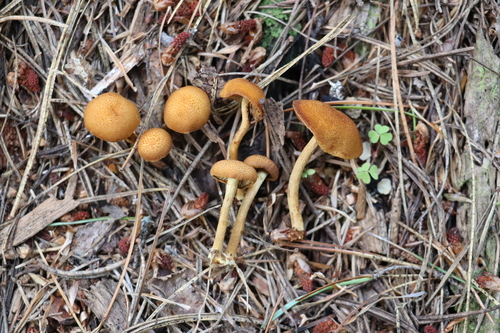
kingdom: Fungi
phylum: Basidiomycota
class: Agaricomycetes
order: Agaricales
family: Tubariaceae
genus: Flammulaster
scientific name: Flammulaster limulatus
